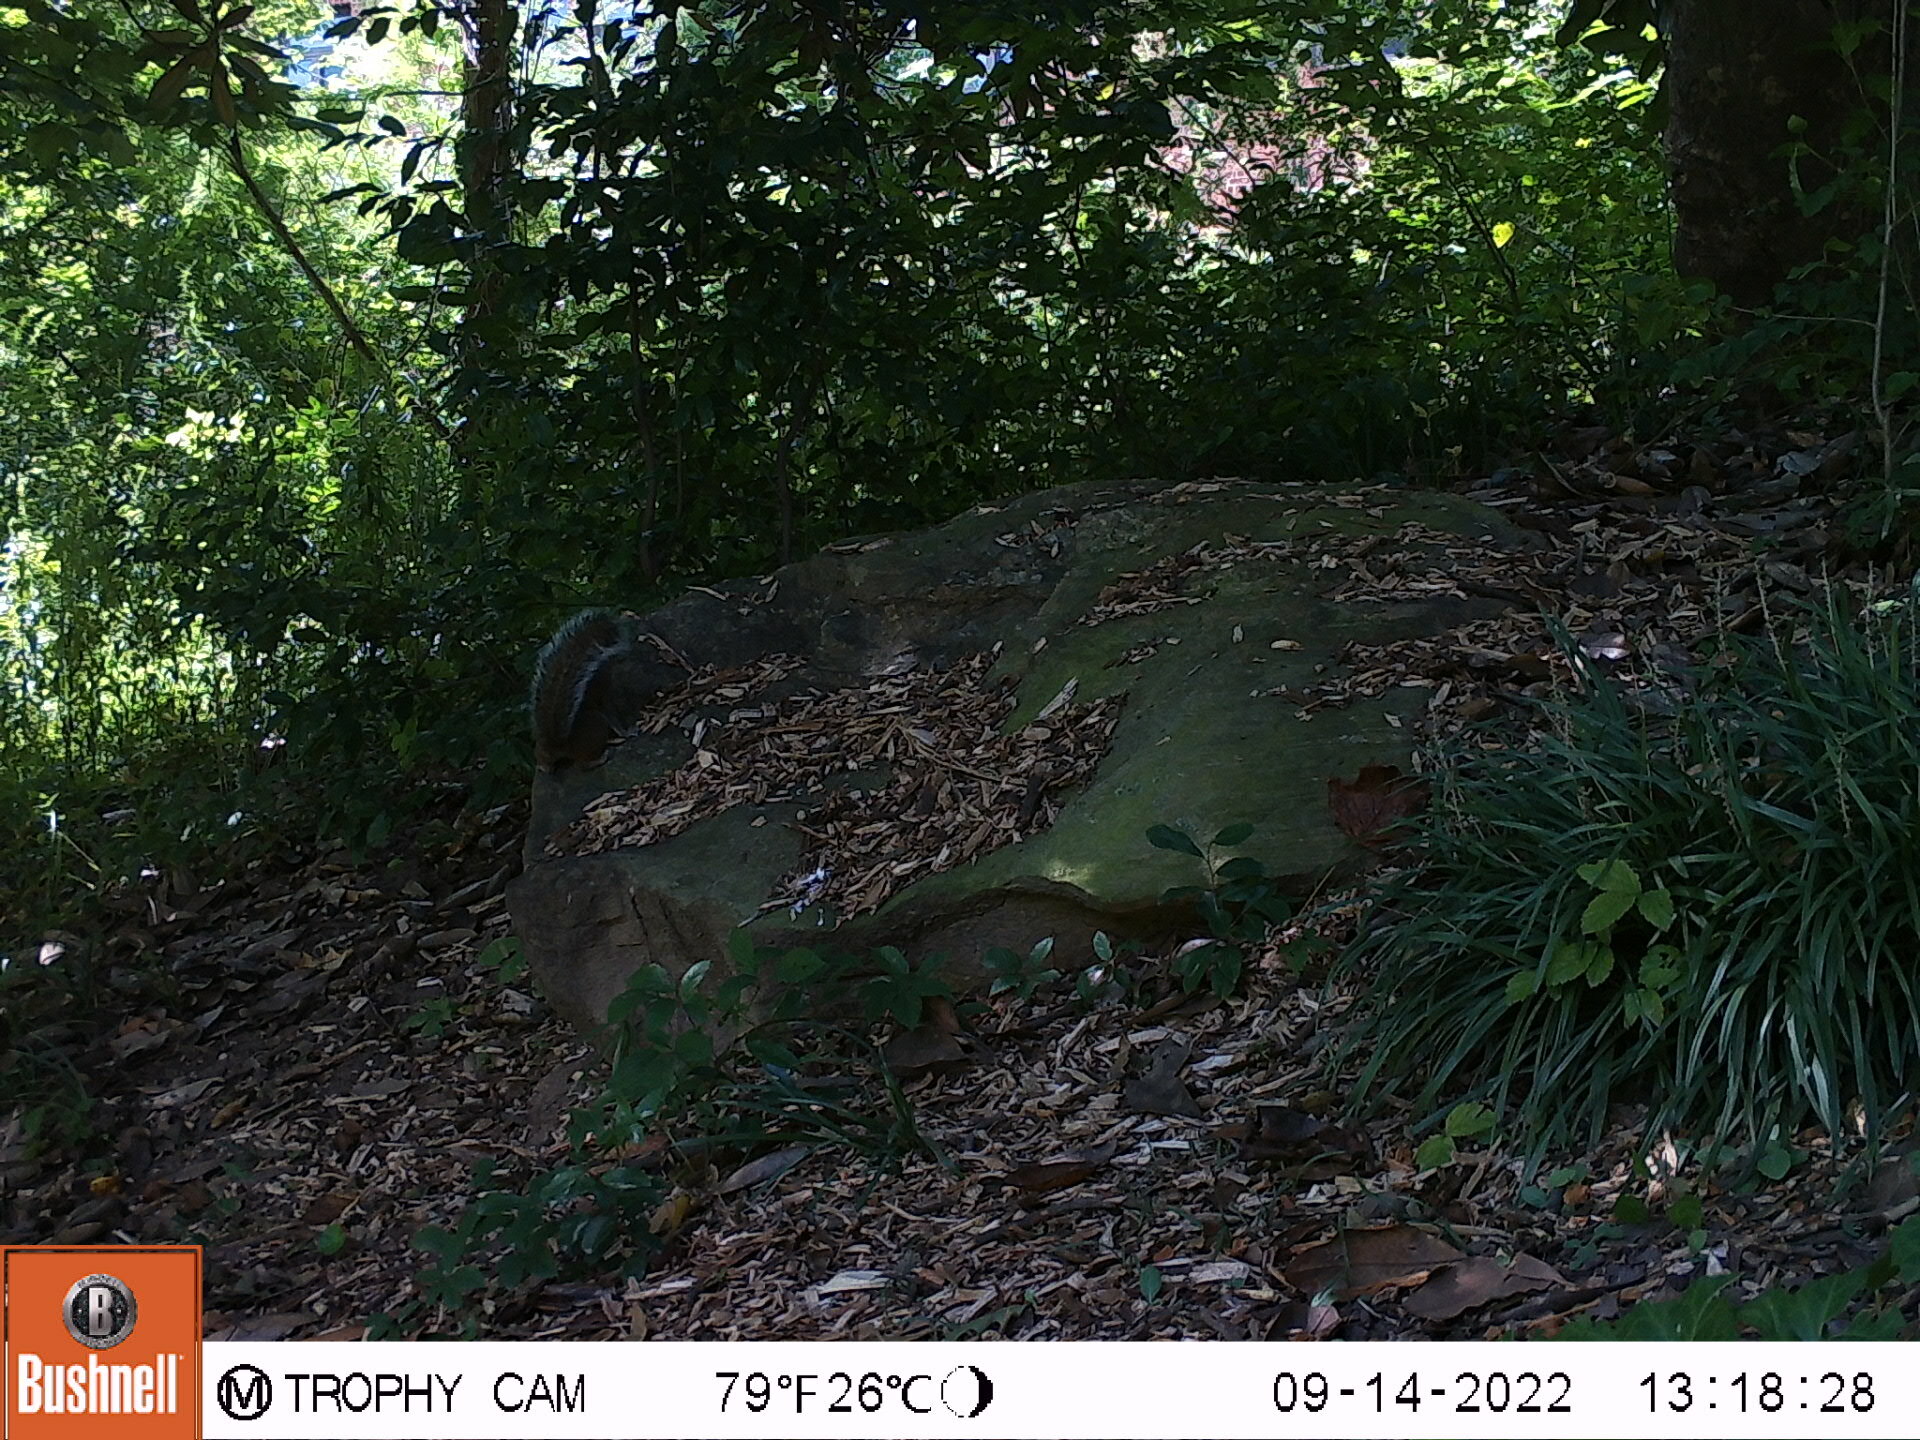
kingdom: Animalia
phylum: Chordata
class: Mammalia
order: Rodentia
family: Sciuridae
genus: Sciurus
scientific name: Sciurus carolinensis
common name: Eastern gray squirrel
